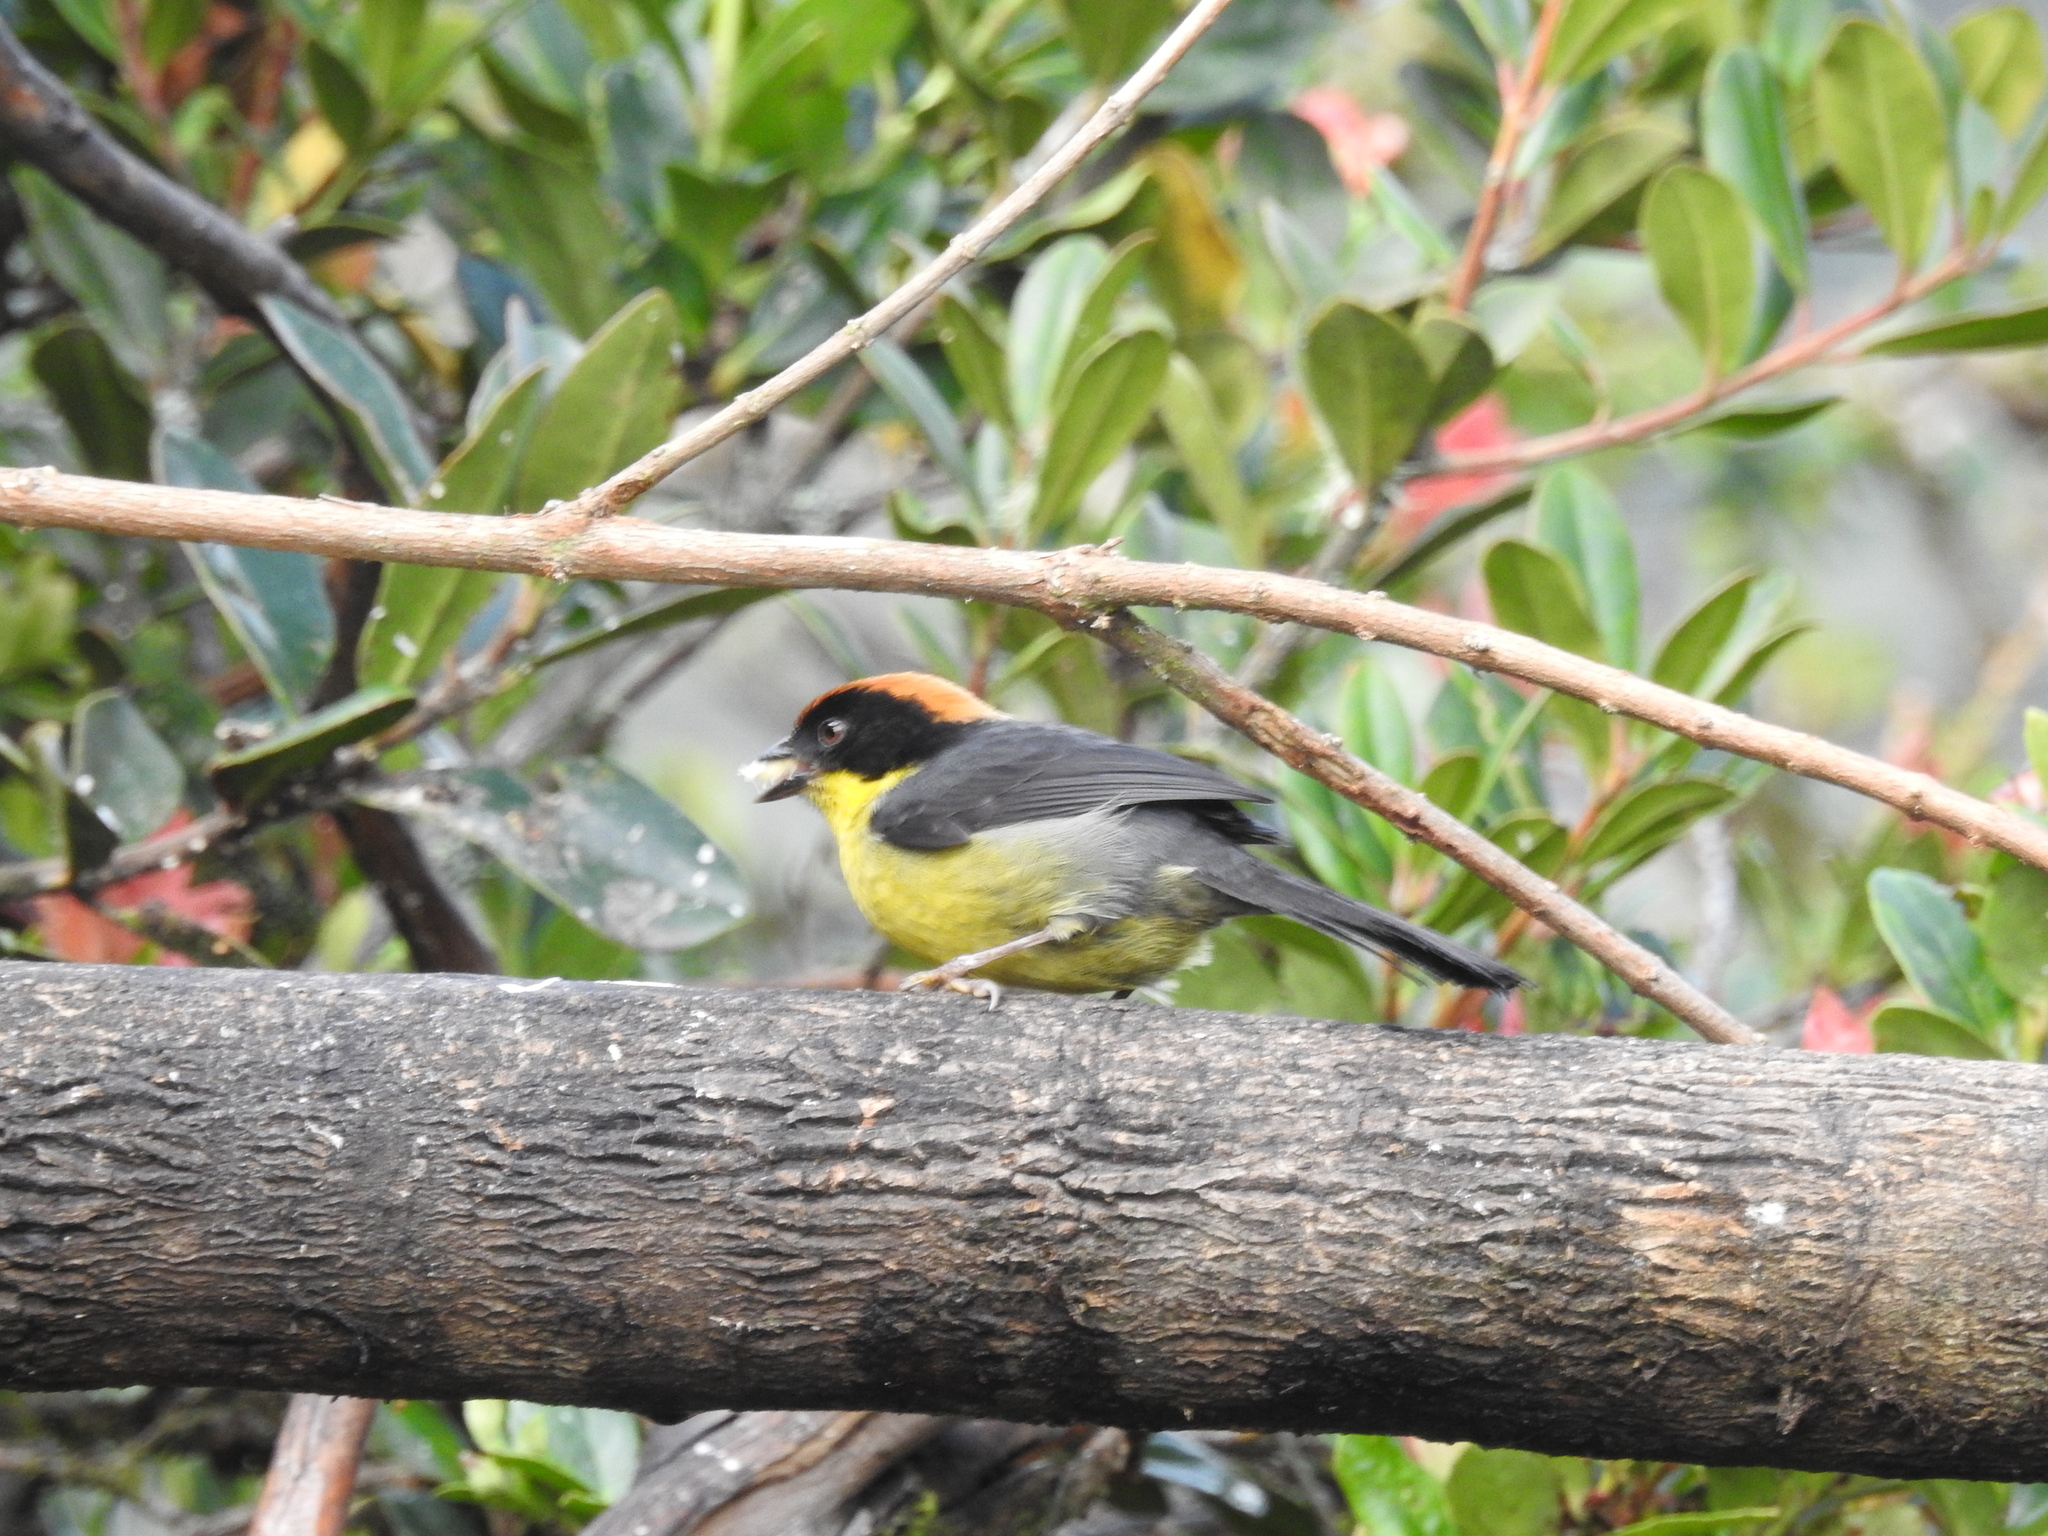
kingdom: Animalia
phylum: Chordata
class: Aves
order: Passeriformes
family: Passerellidae
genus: Atlapetes
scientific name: Atlapetes latinuchus
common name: Yellow-breasted brushfinch
